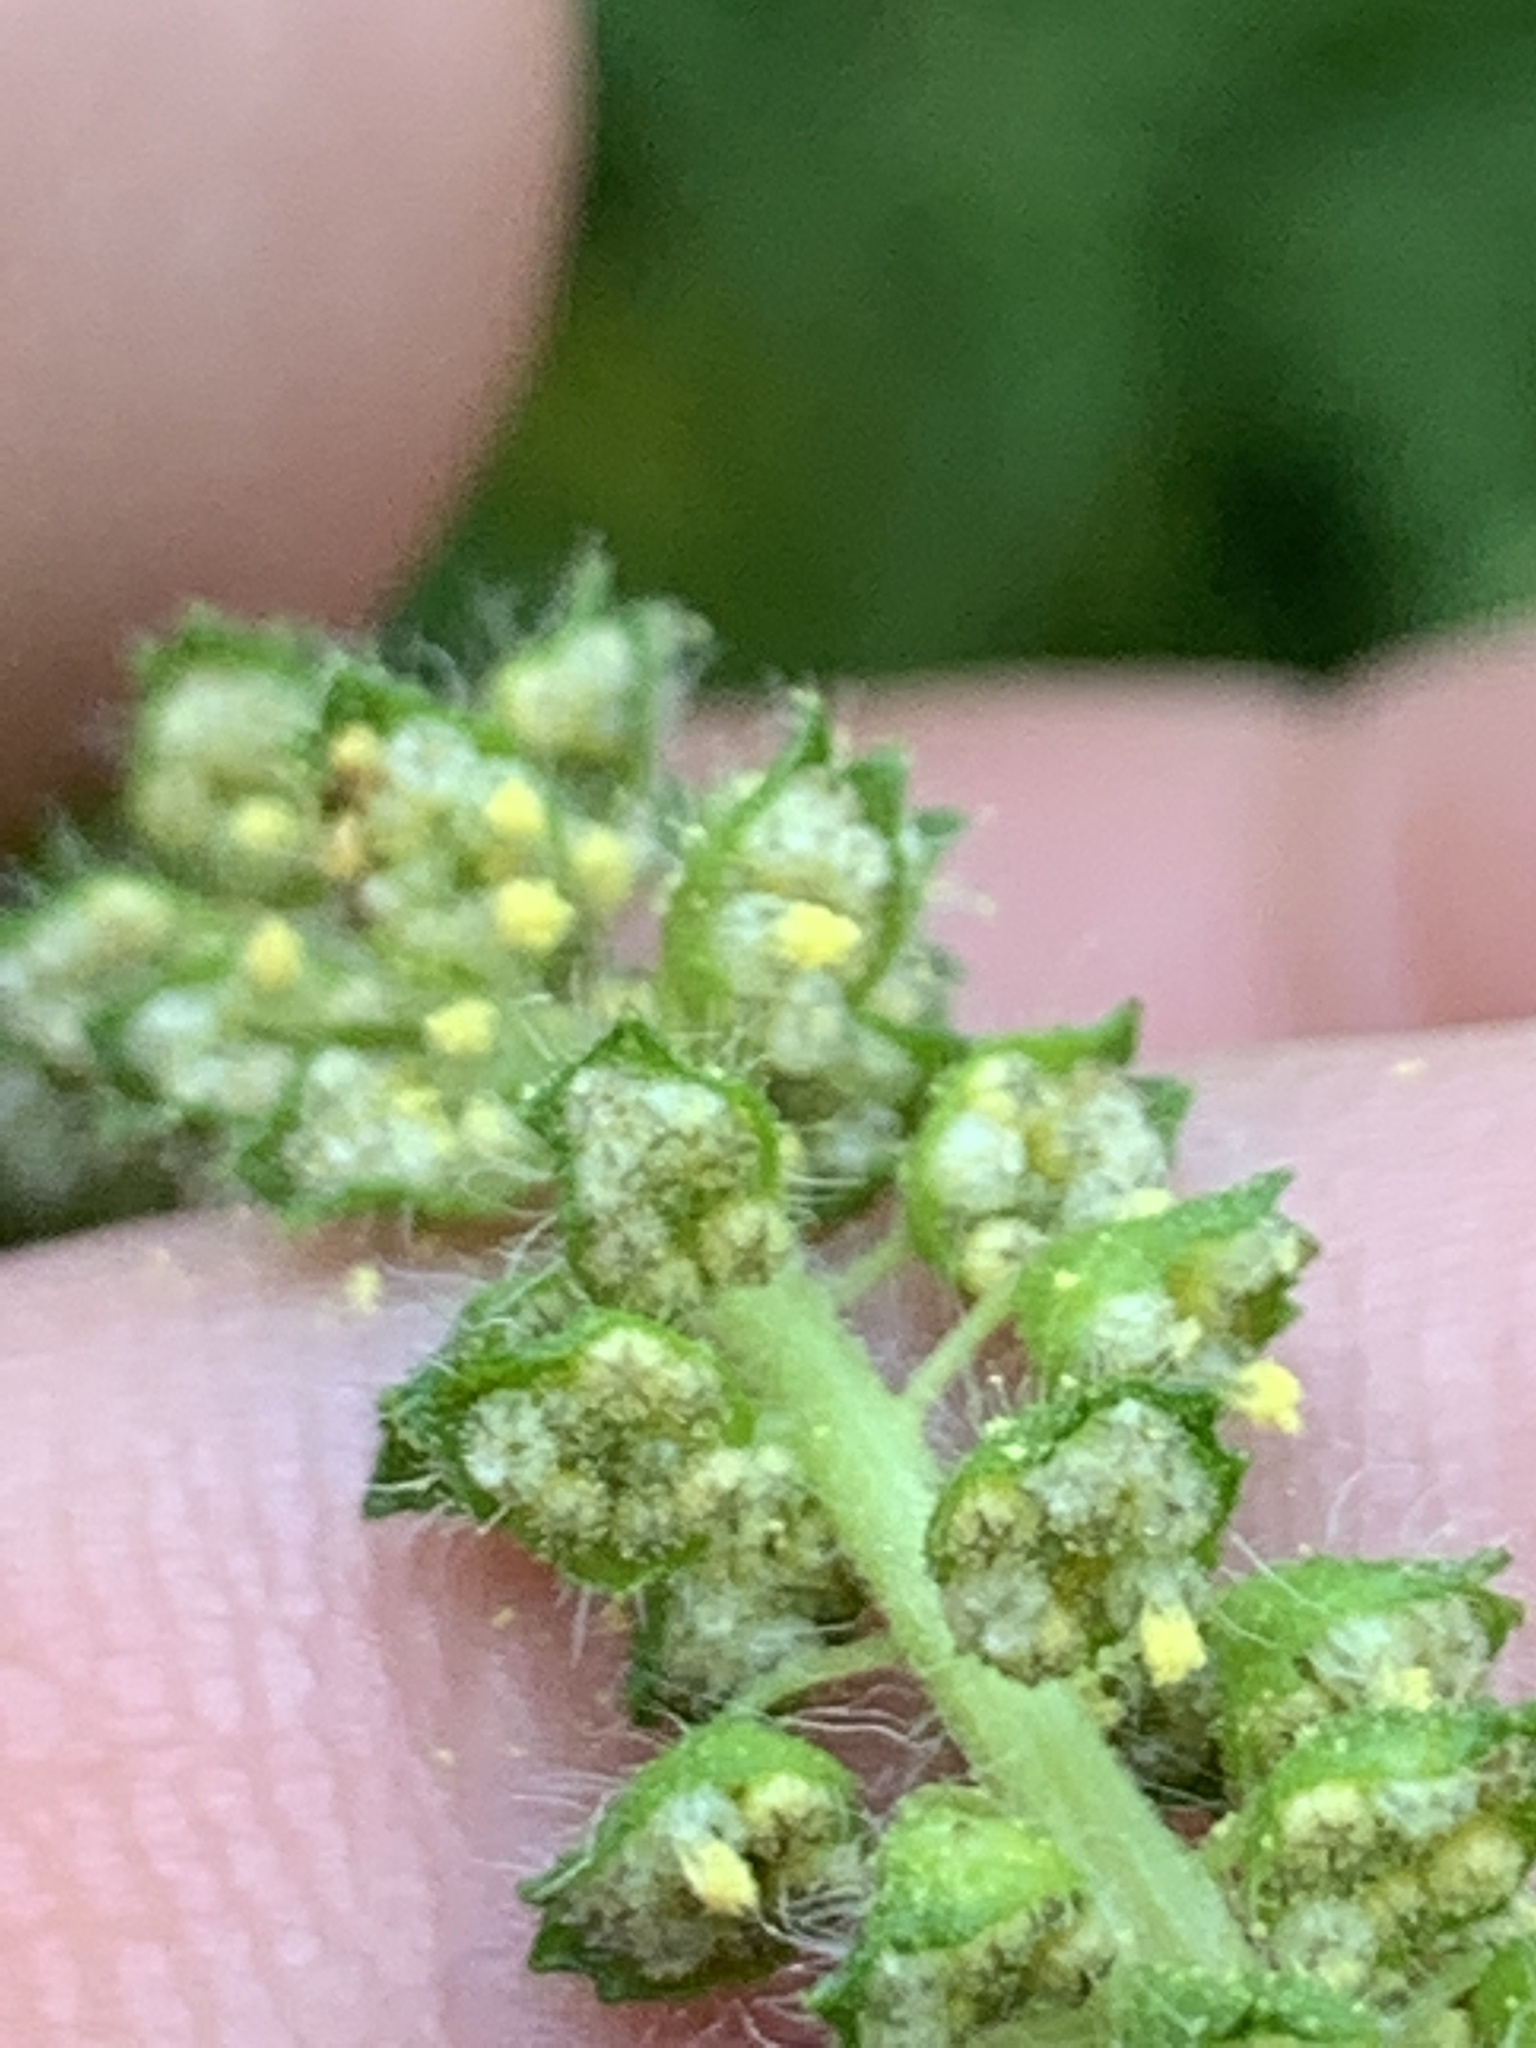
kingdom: Plantae
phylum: Tracheophyta
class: Magnoliopsida
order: Asterales
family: Asteraceae
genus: Ambrosia
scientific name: Ambrosia artemisiifolia
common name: Annual ragweed
